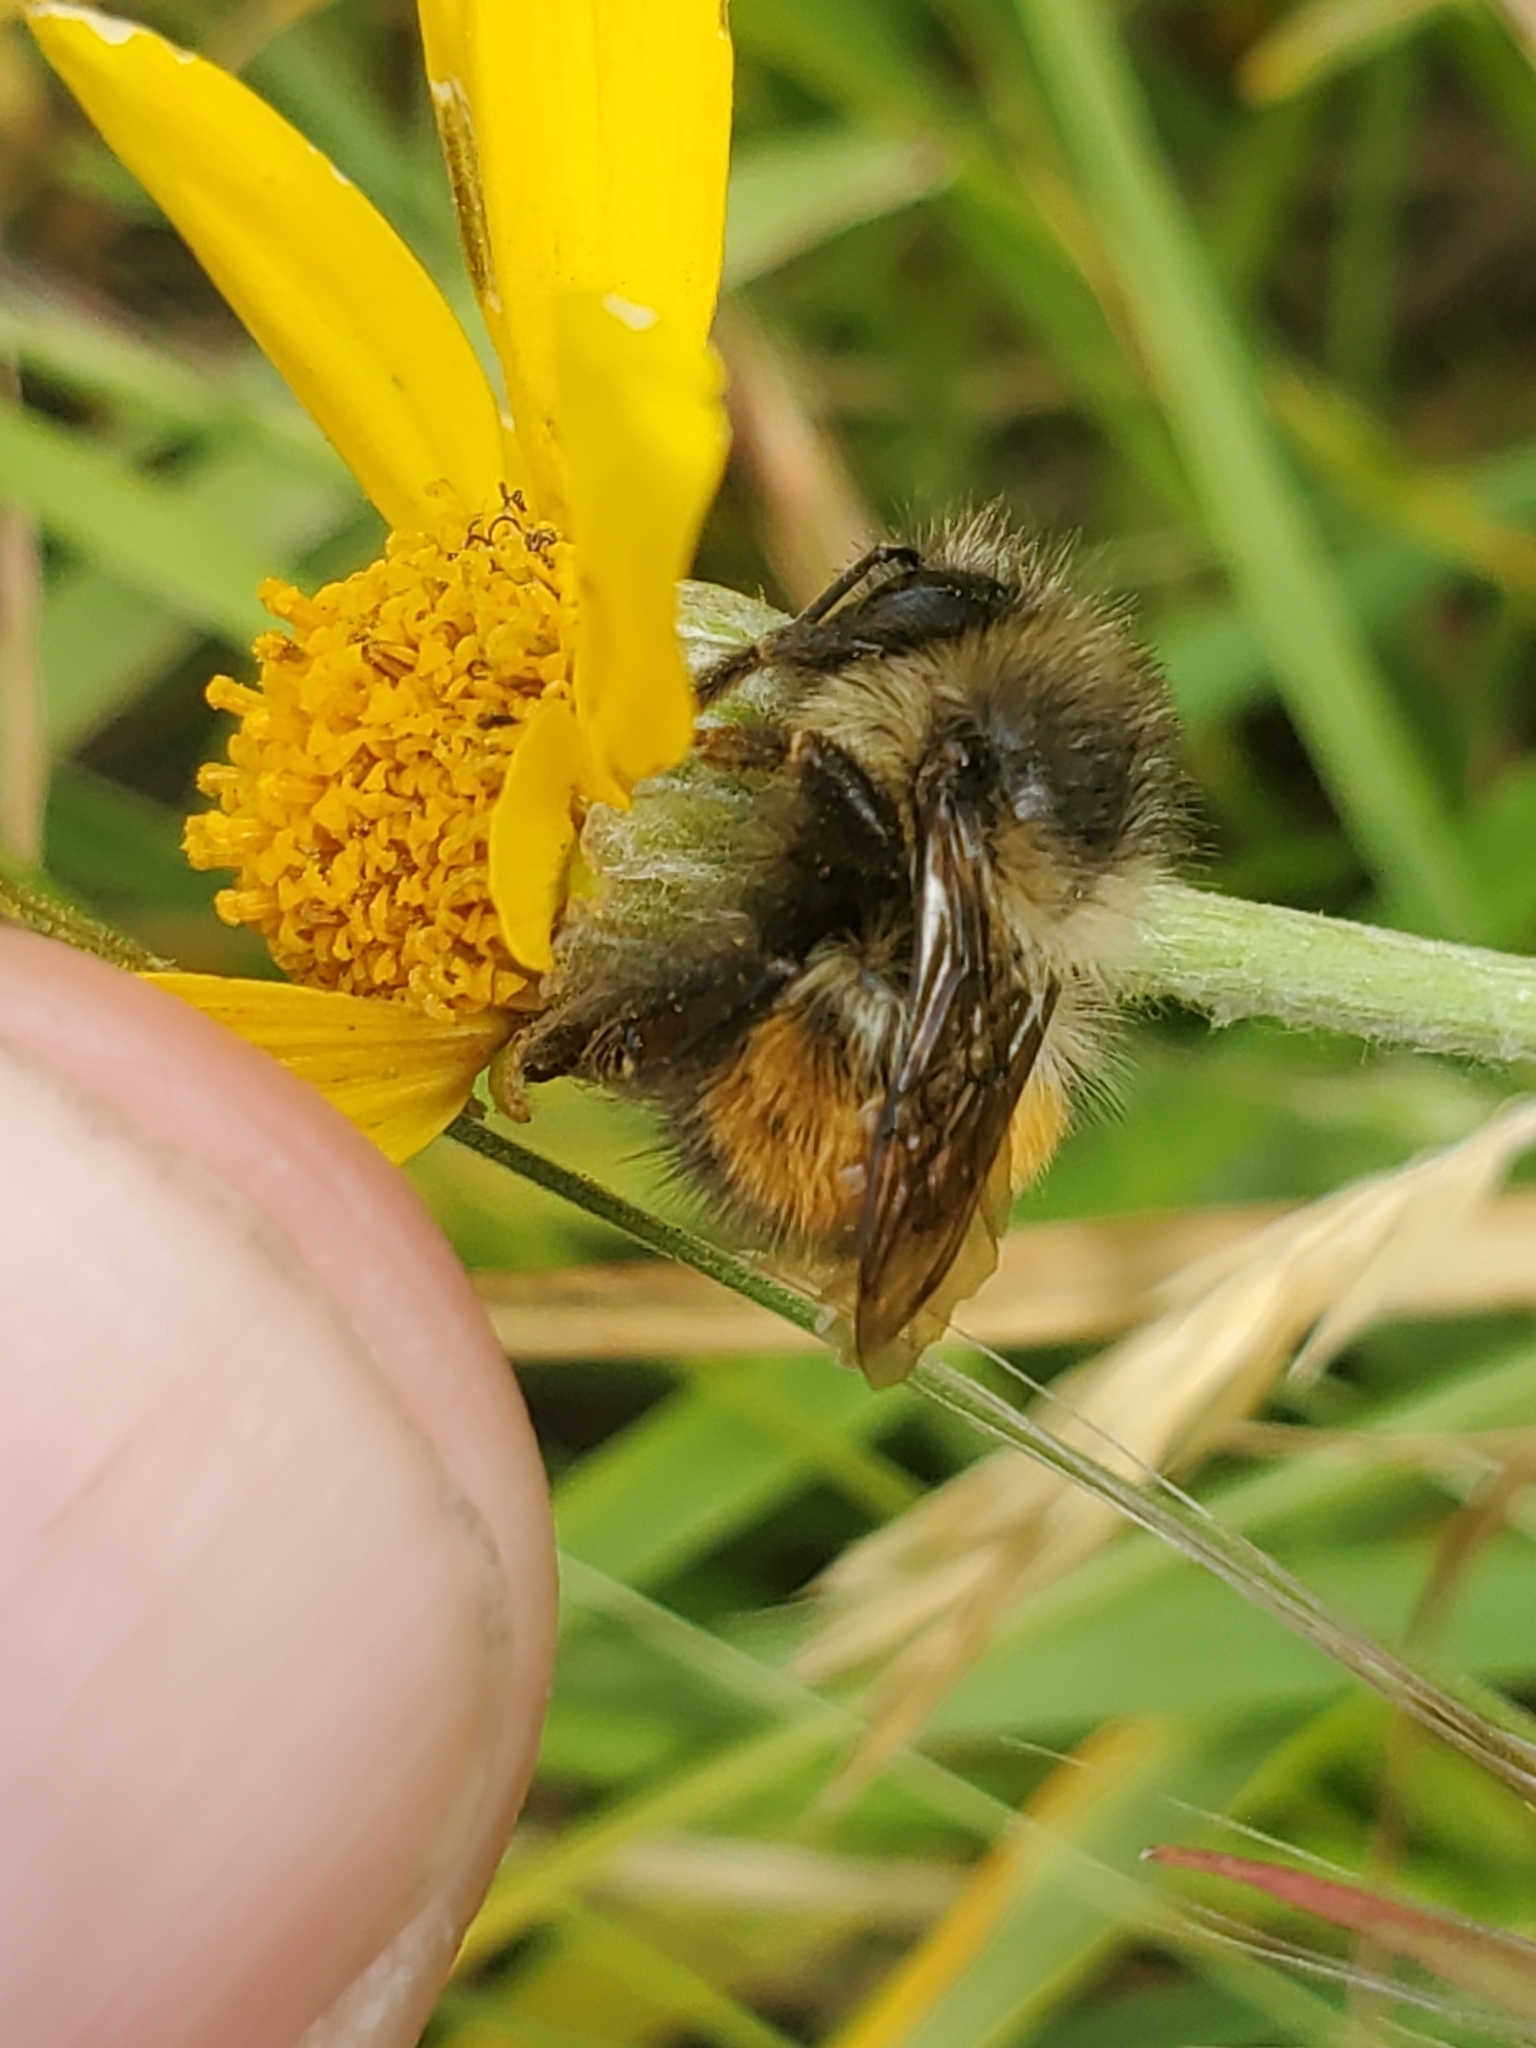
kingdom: Animalia
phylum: Arthropoda
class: Insecta
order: Hymenoptera
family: Apidae
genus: Bombus
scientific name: Bombus melanopygus
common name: Black tail bumble bee
